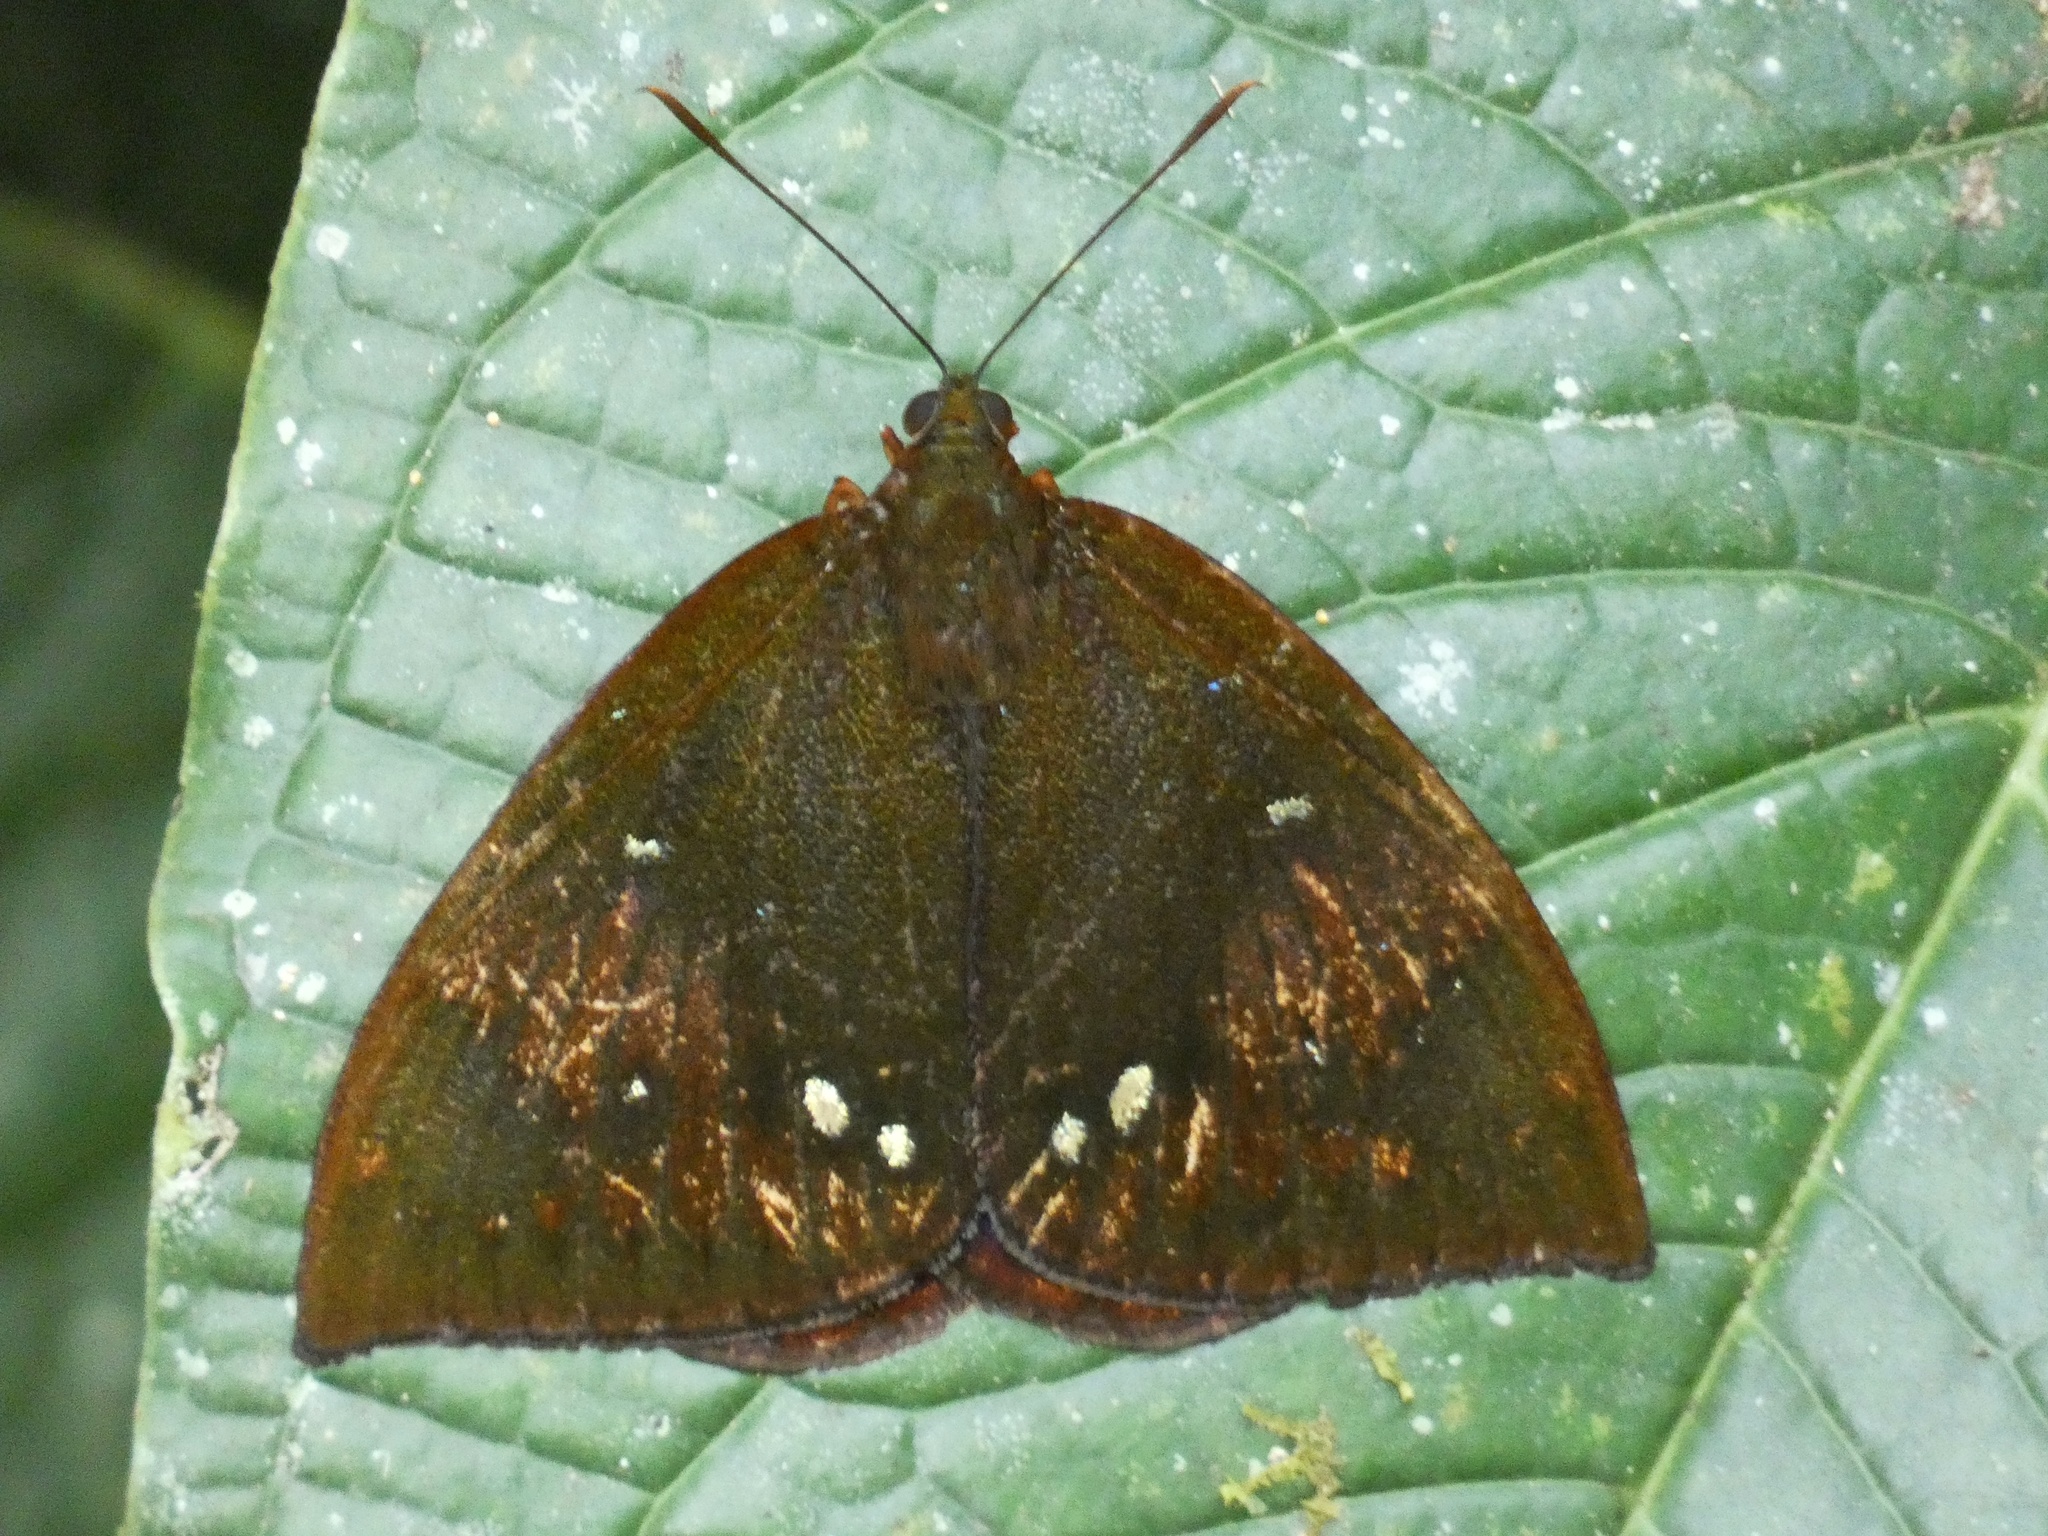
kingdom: Animalia
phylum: Arthropoda
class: Insecta
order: Lepidoptera
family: Castniidae
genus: Telchin
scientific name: Telchin diva
